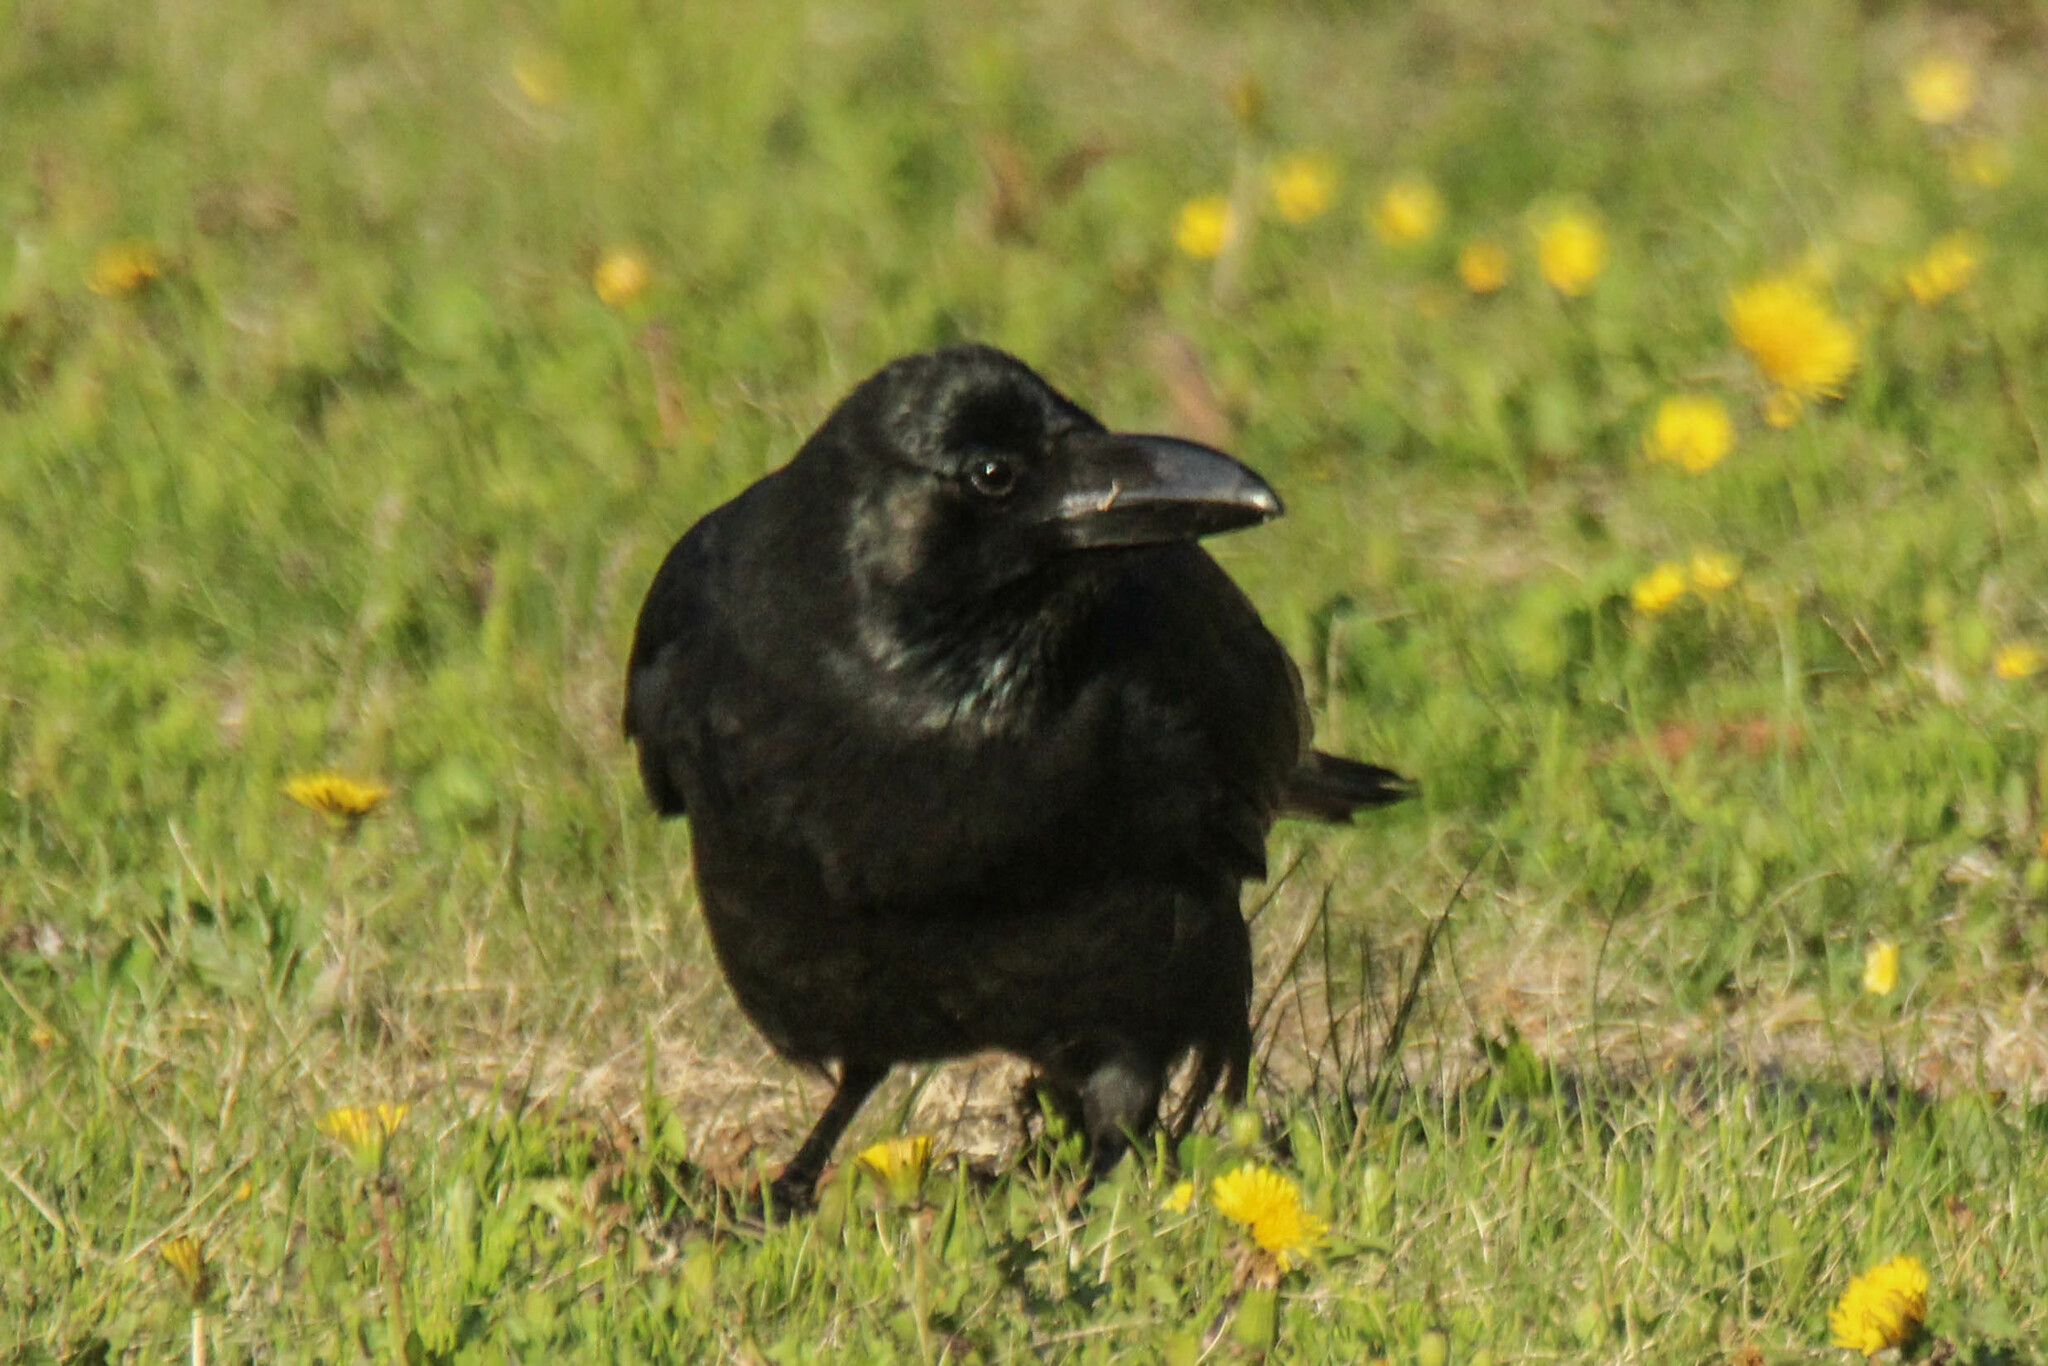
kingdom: Animalia
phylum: Chordata
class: Aves
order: Passeriformes
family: Corvidae
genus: Corvus
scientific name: Corvus macrorhynchos
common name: Large-billed crow
